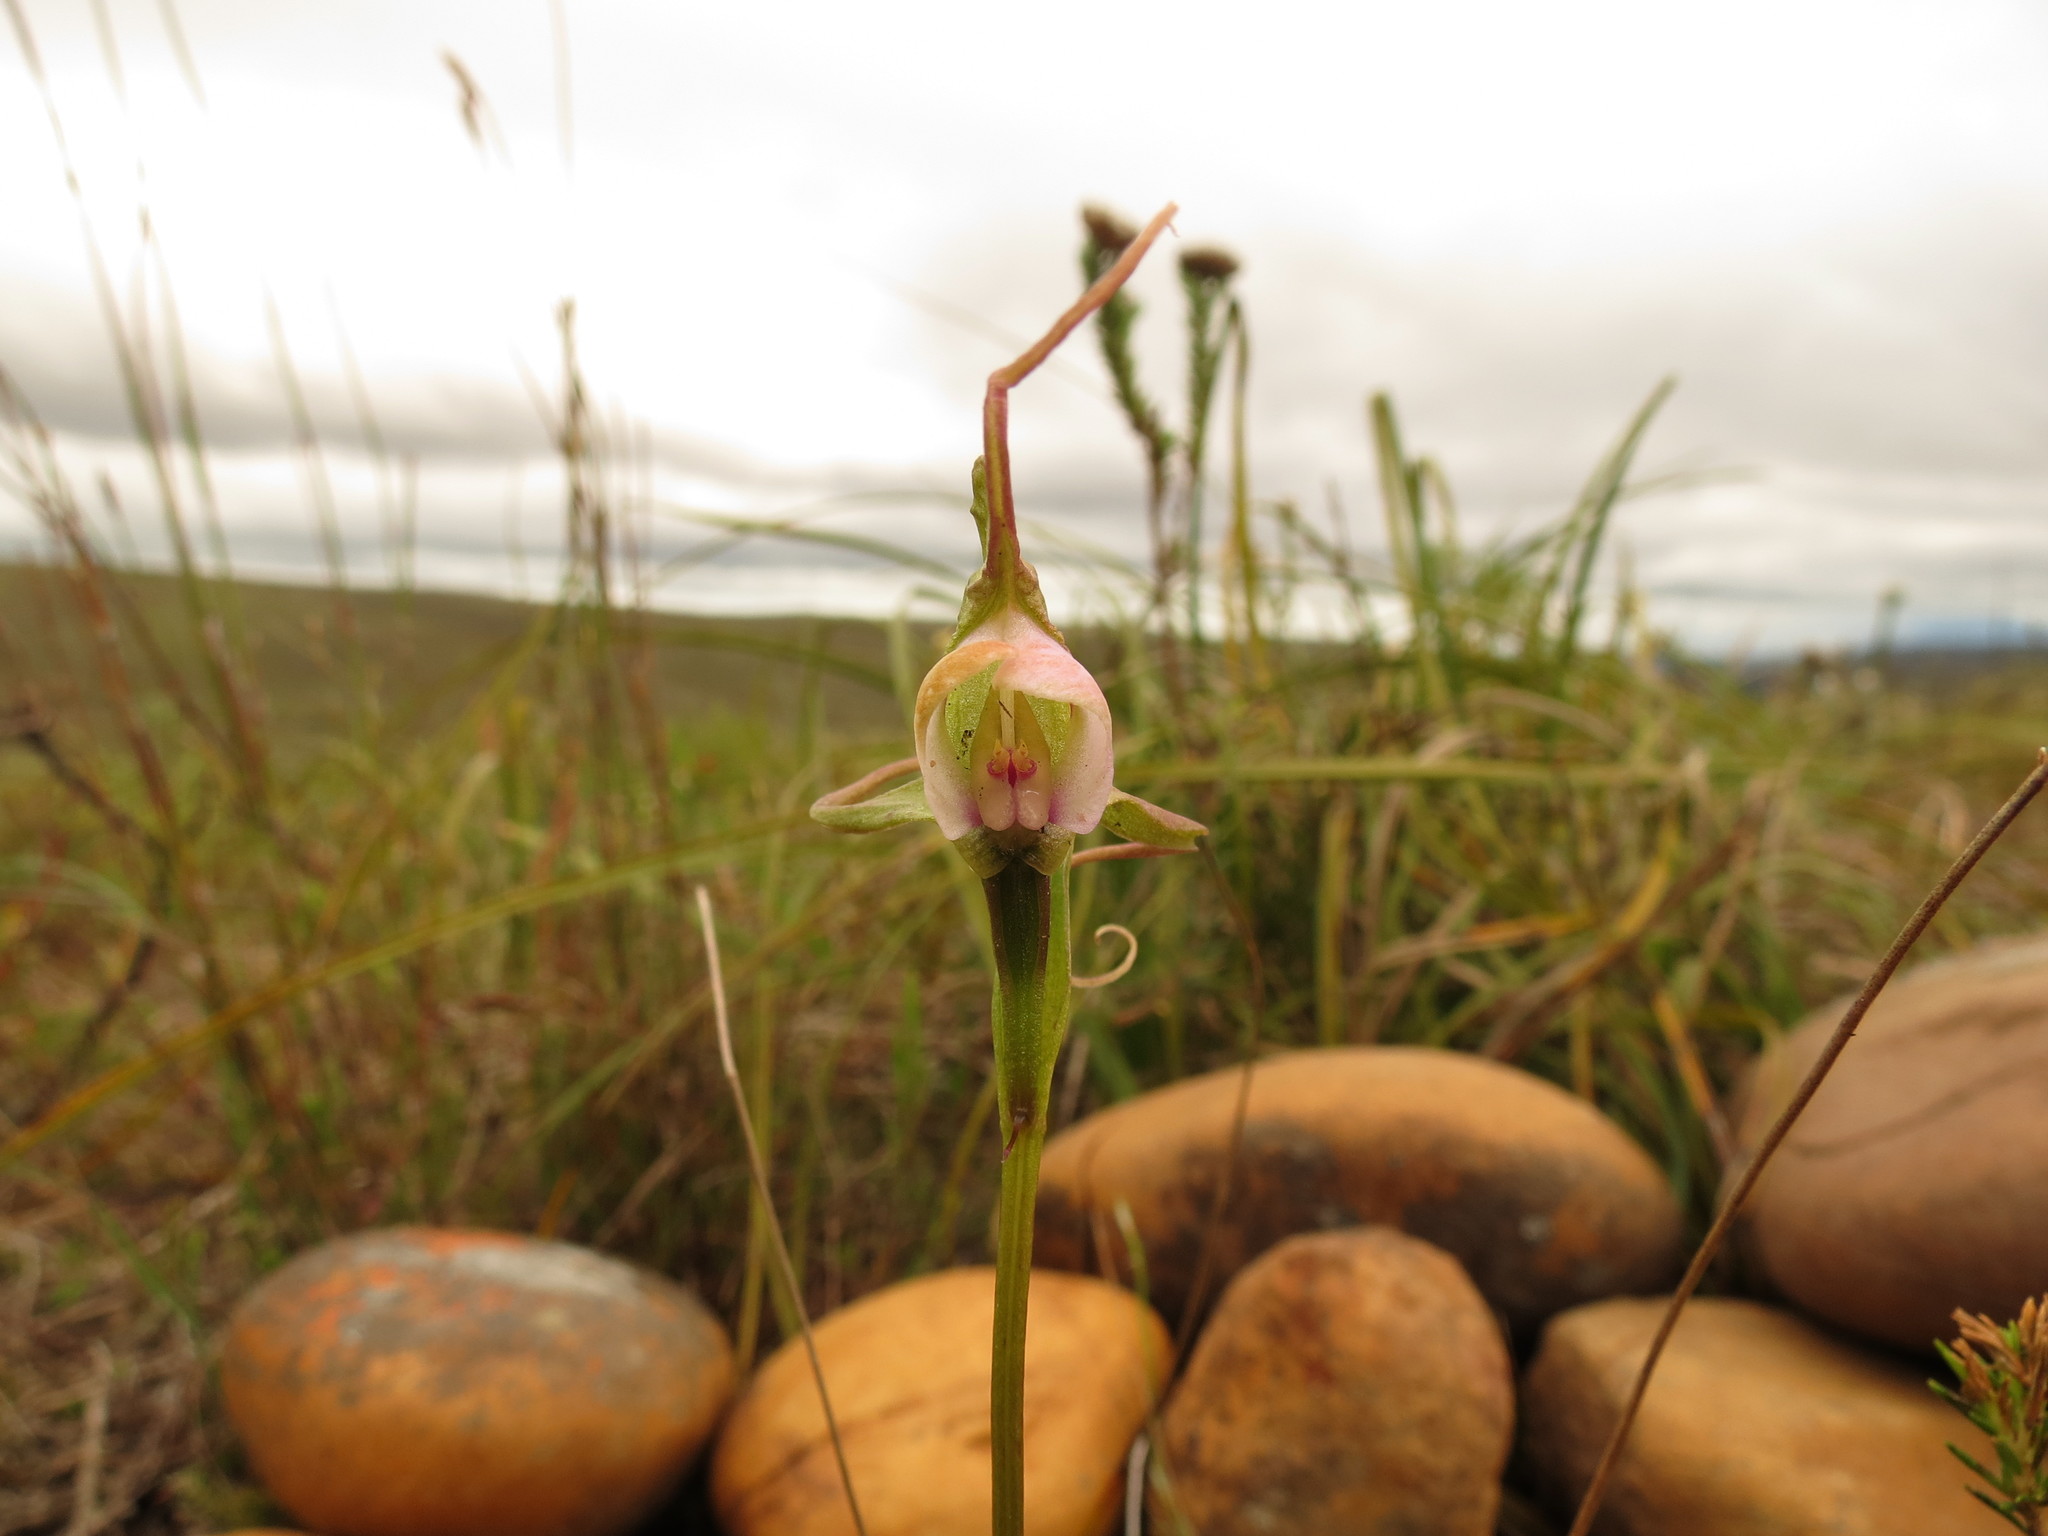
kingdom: Plantae
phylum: Tracheophyta
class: Liliopsida
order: Asparagales
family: Orchidaceae
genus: Disperis
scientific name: Disperis capensis
